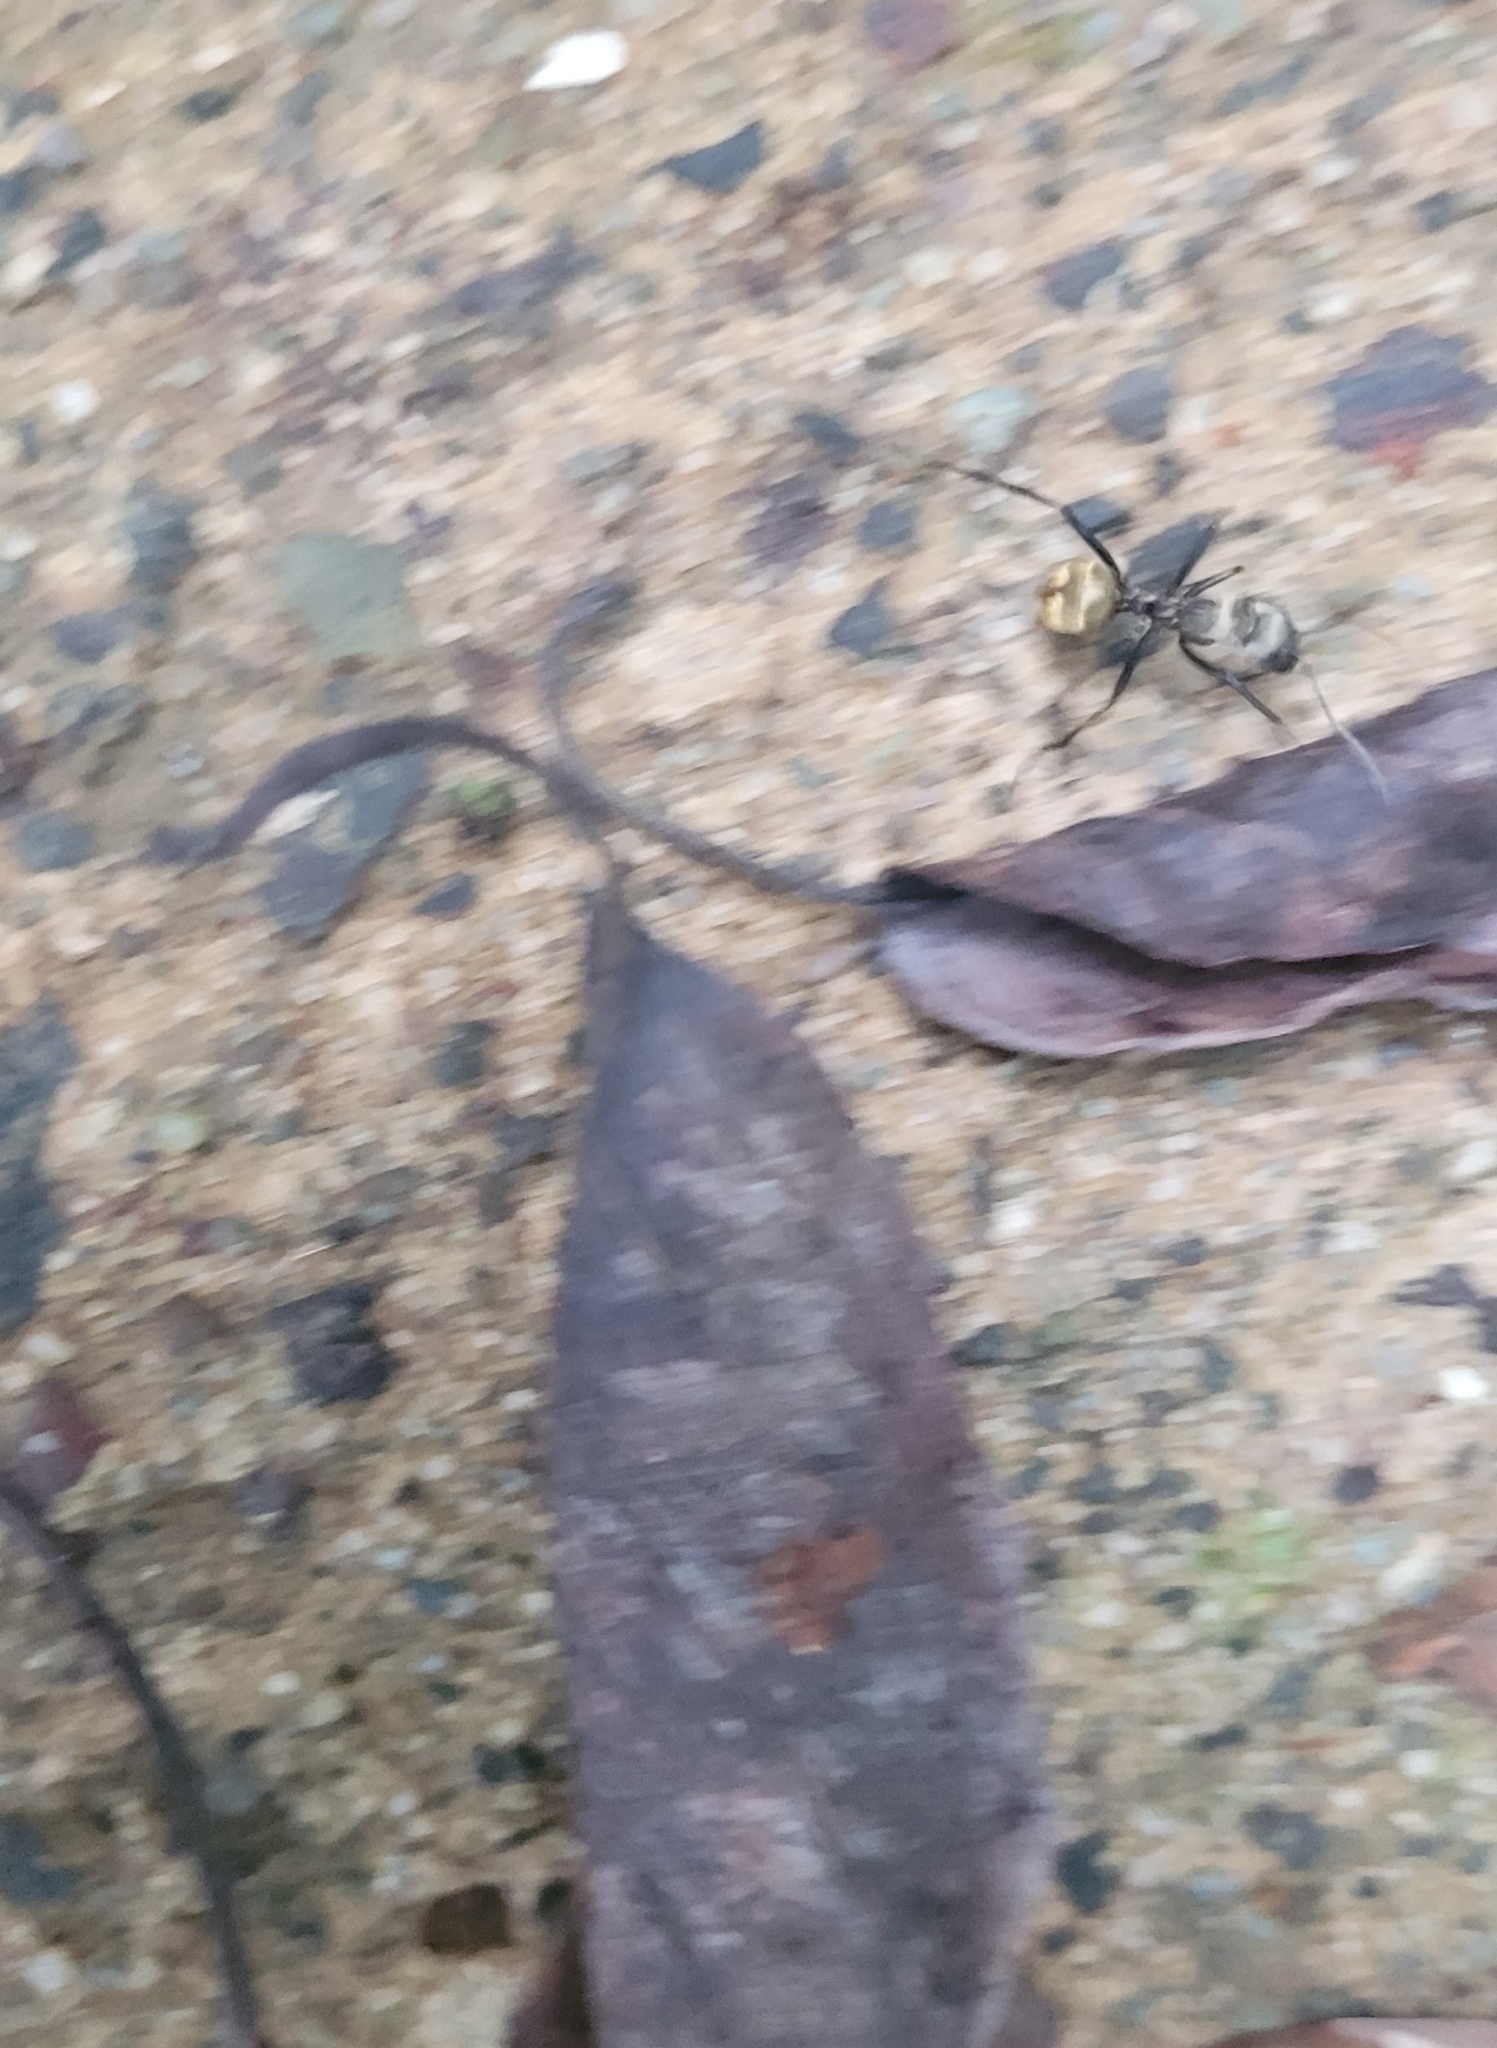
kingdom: Animalia
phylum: Arthropoda
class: Insecta
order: Hymenoptera
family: Formicidae
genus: Camponotus
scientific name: Camponotus sericeiventris
